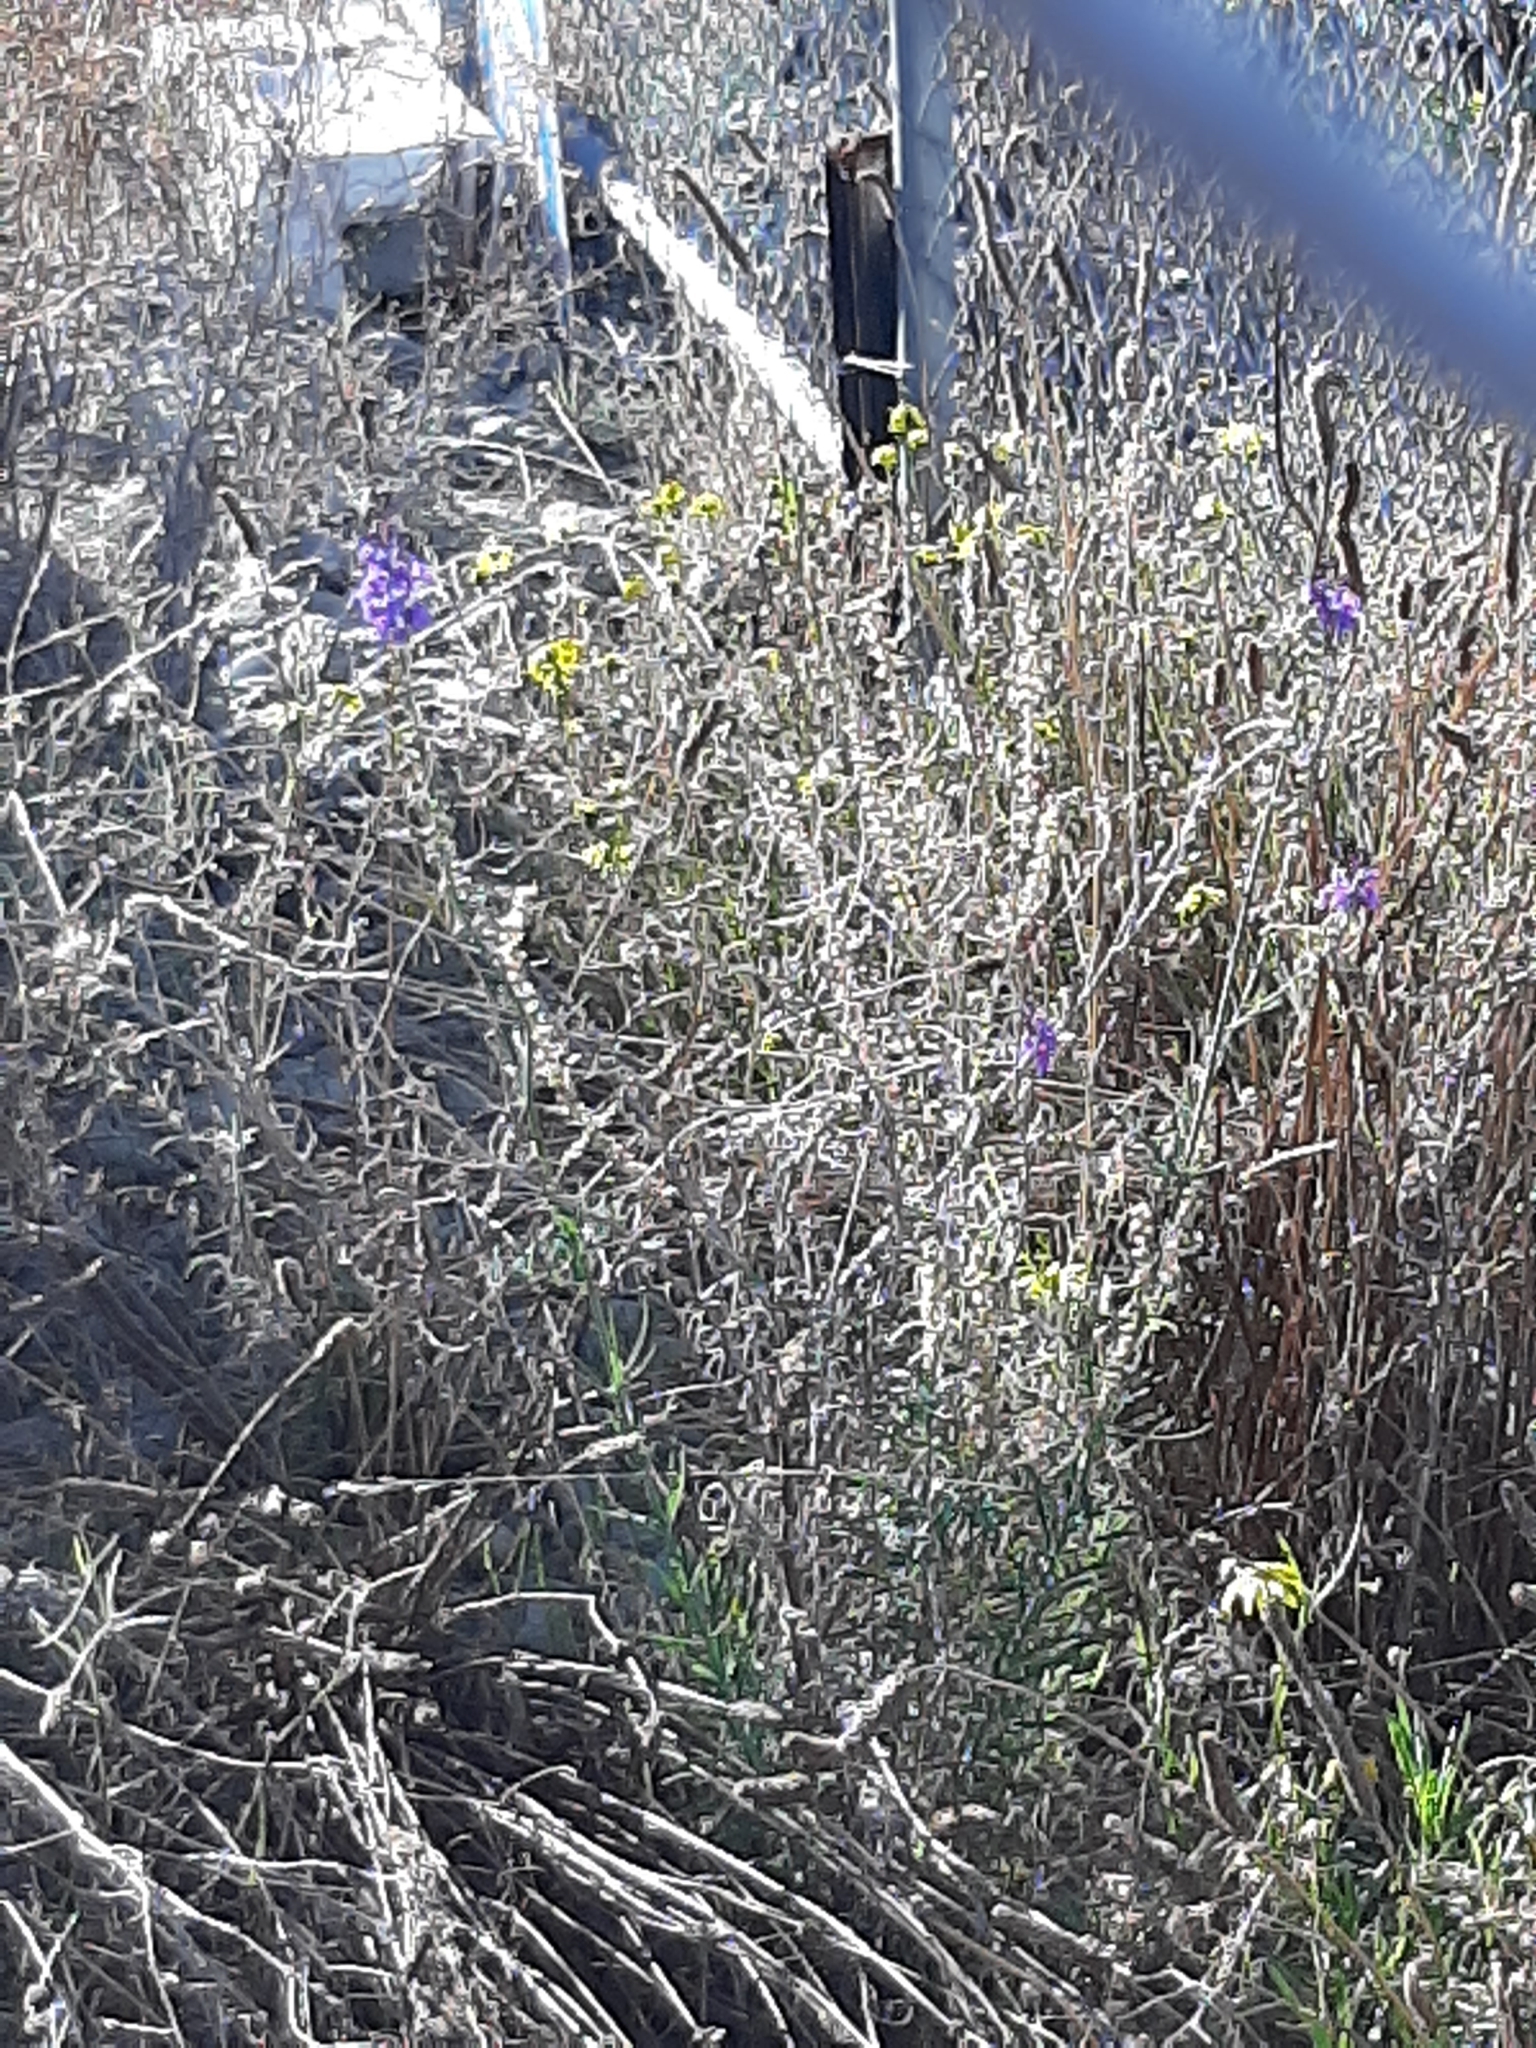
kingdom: Plantae
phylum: Tracheophyta
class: Magnoliopsida
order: Lamiales
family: Plantaginaceae
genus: Linaria
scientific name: Linaria purpurea
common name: Purple toadflax
